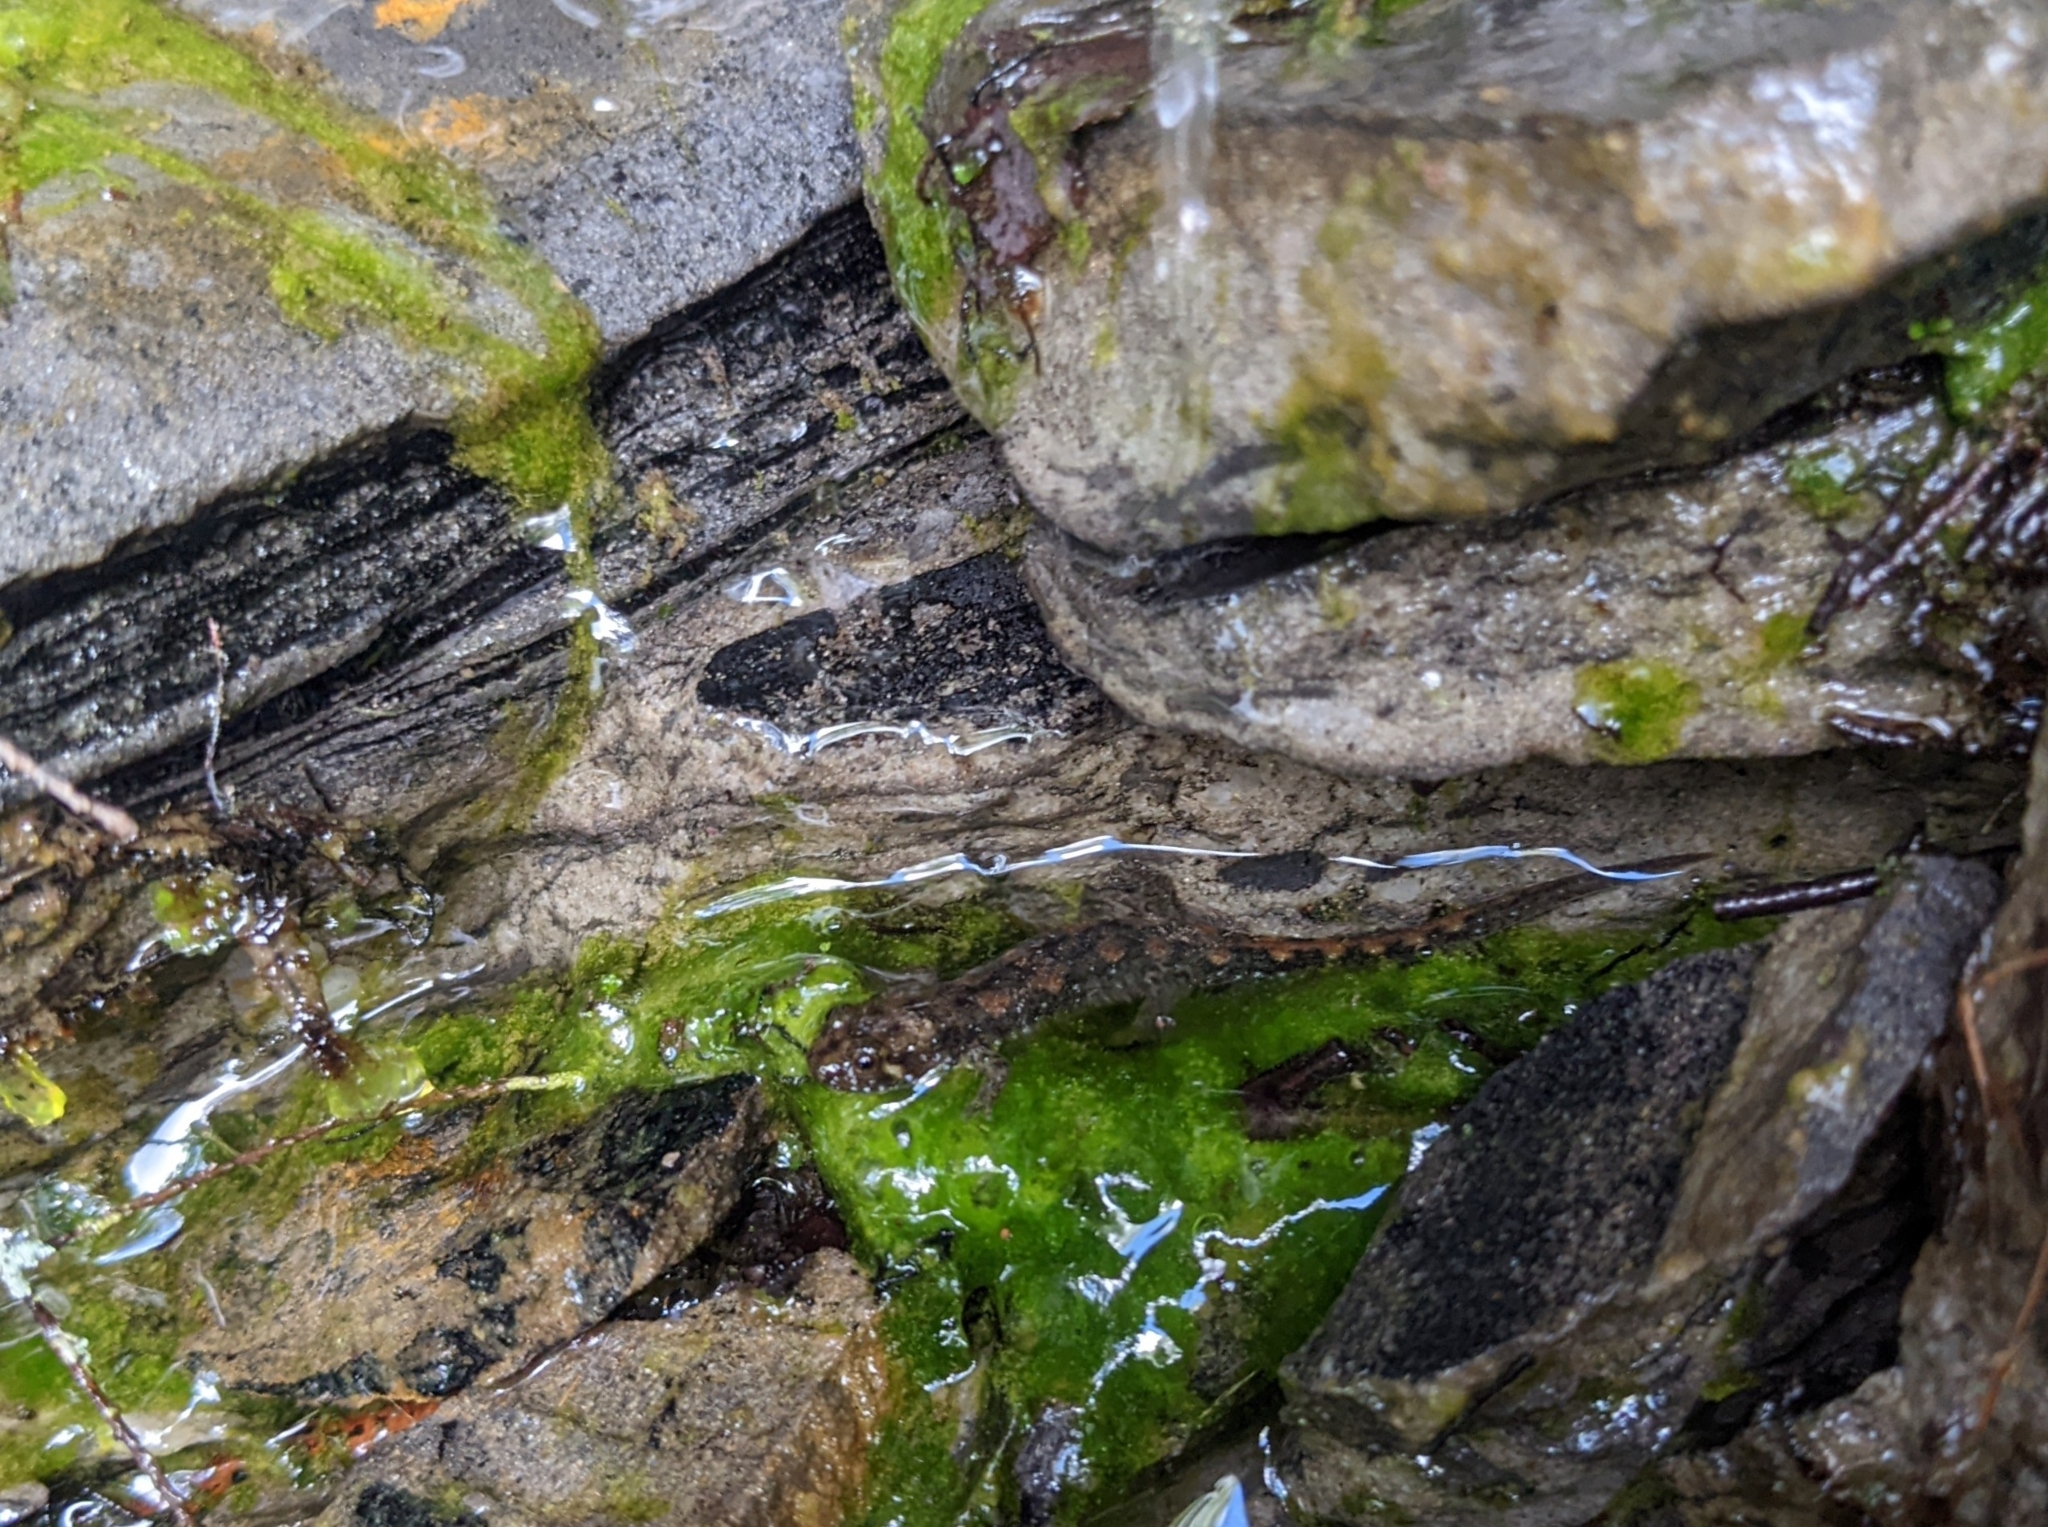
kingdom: Animalia
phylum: Chordata
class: Amphibia
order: Caudata
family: Plethodontidae
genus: Desmognathus
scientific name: Desmognathus monticola
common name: Seal salamander
